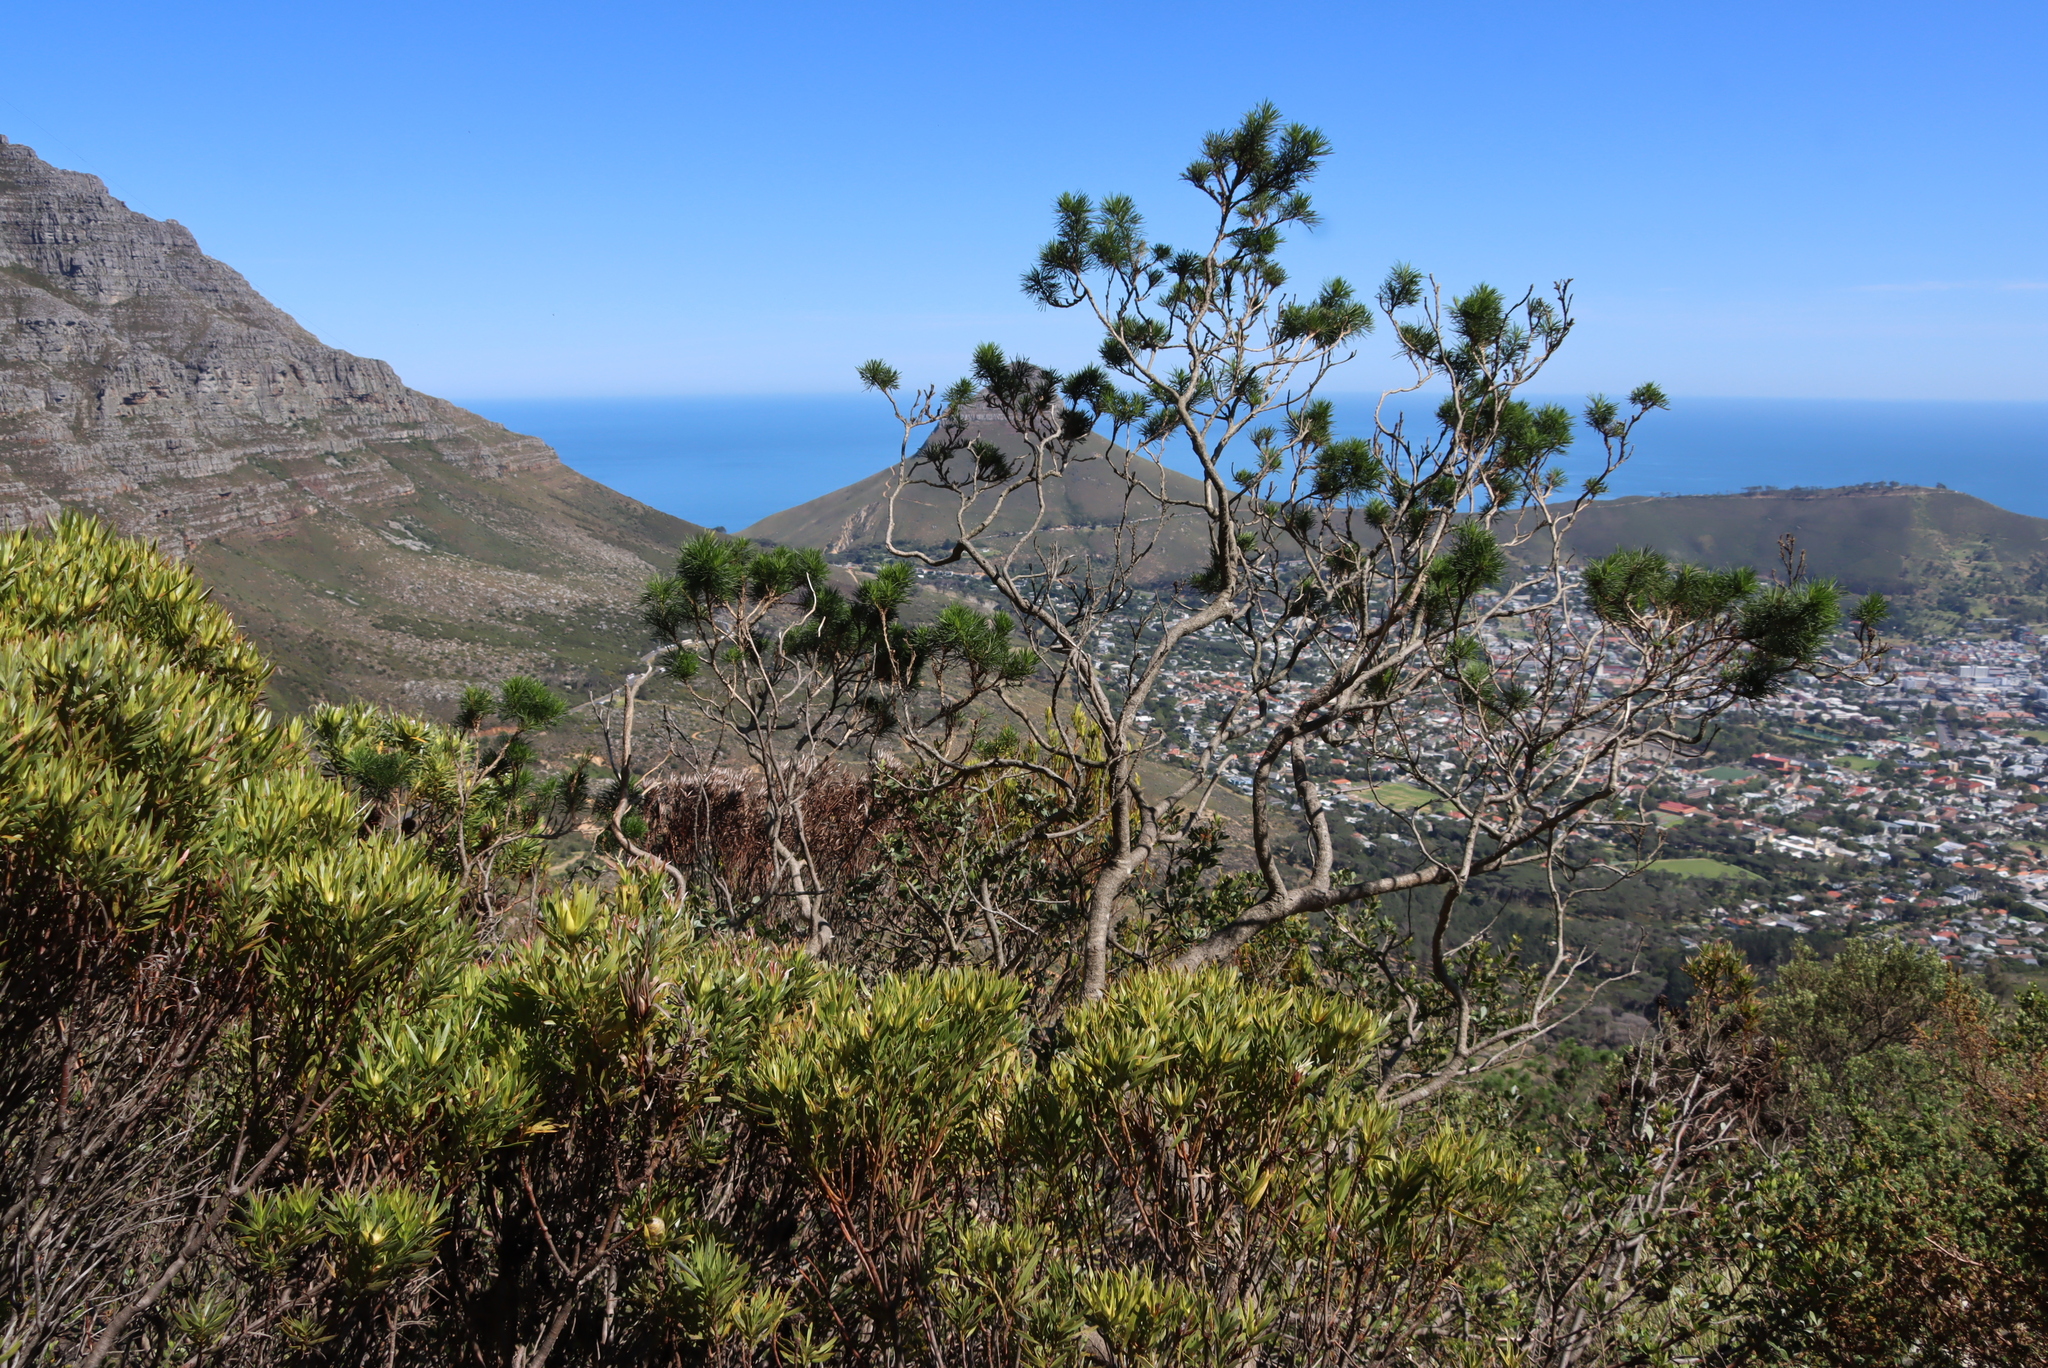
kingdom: Plantae
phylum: Tracheophyta
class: Magnoliopsida
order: Fabales
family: Fabaceae
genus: Psoralea
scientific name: Psoralea pinnata
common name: African scurfpea
